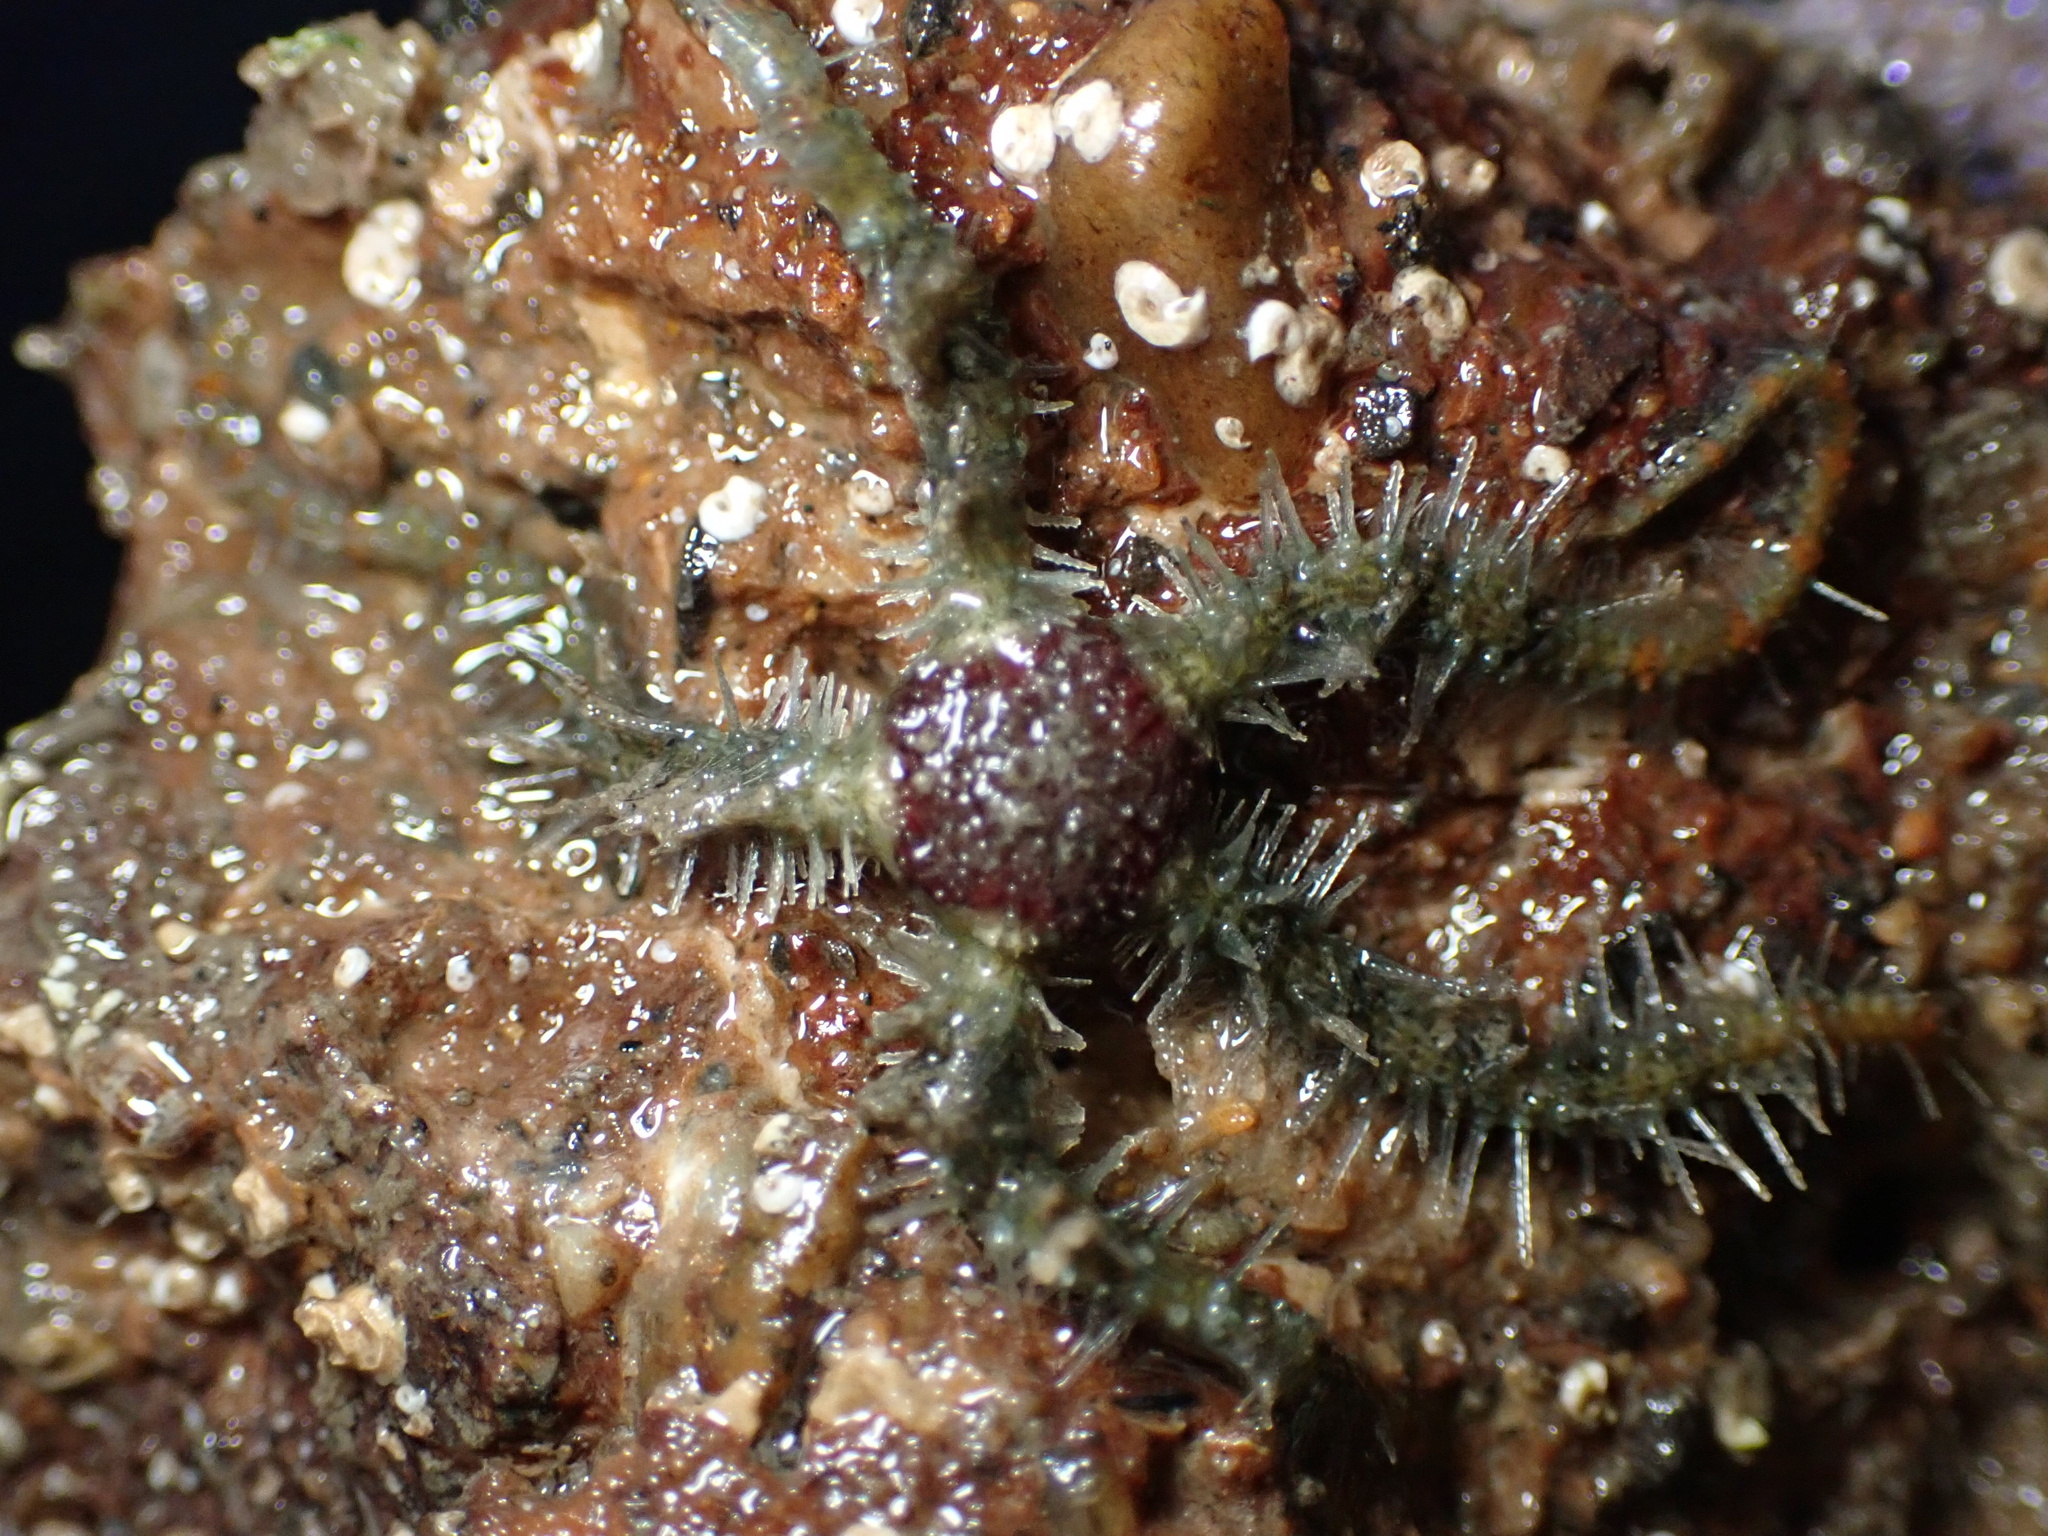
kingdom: Animalia
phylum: Echinodermata
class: Ophiuroidea
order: Amphilepidida
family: Ophiotrichidae
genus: Ophiothrix
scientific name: Ophiothrix spiculata
